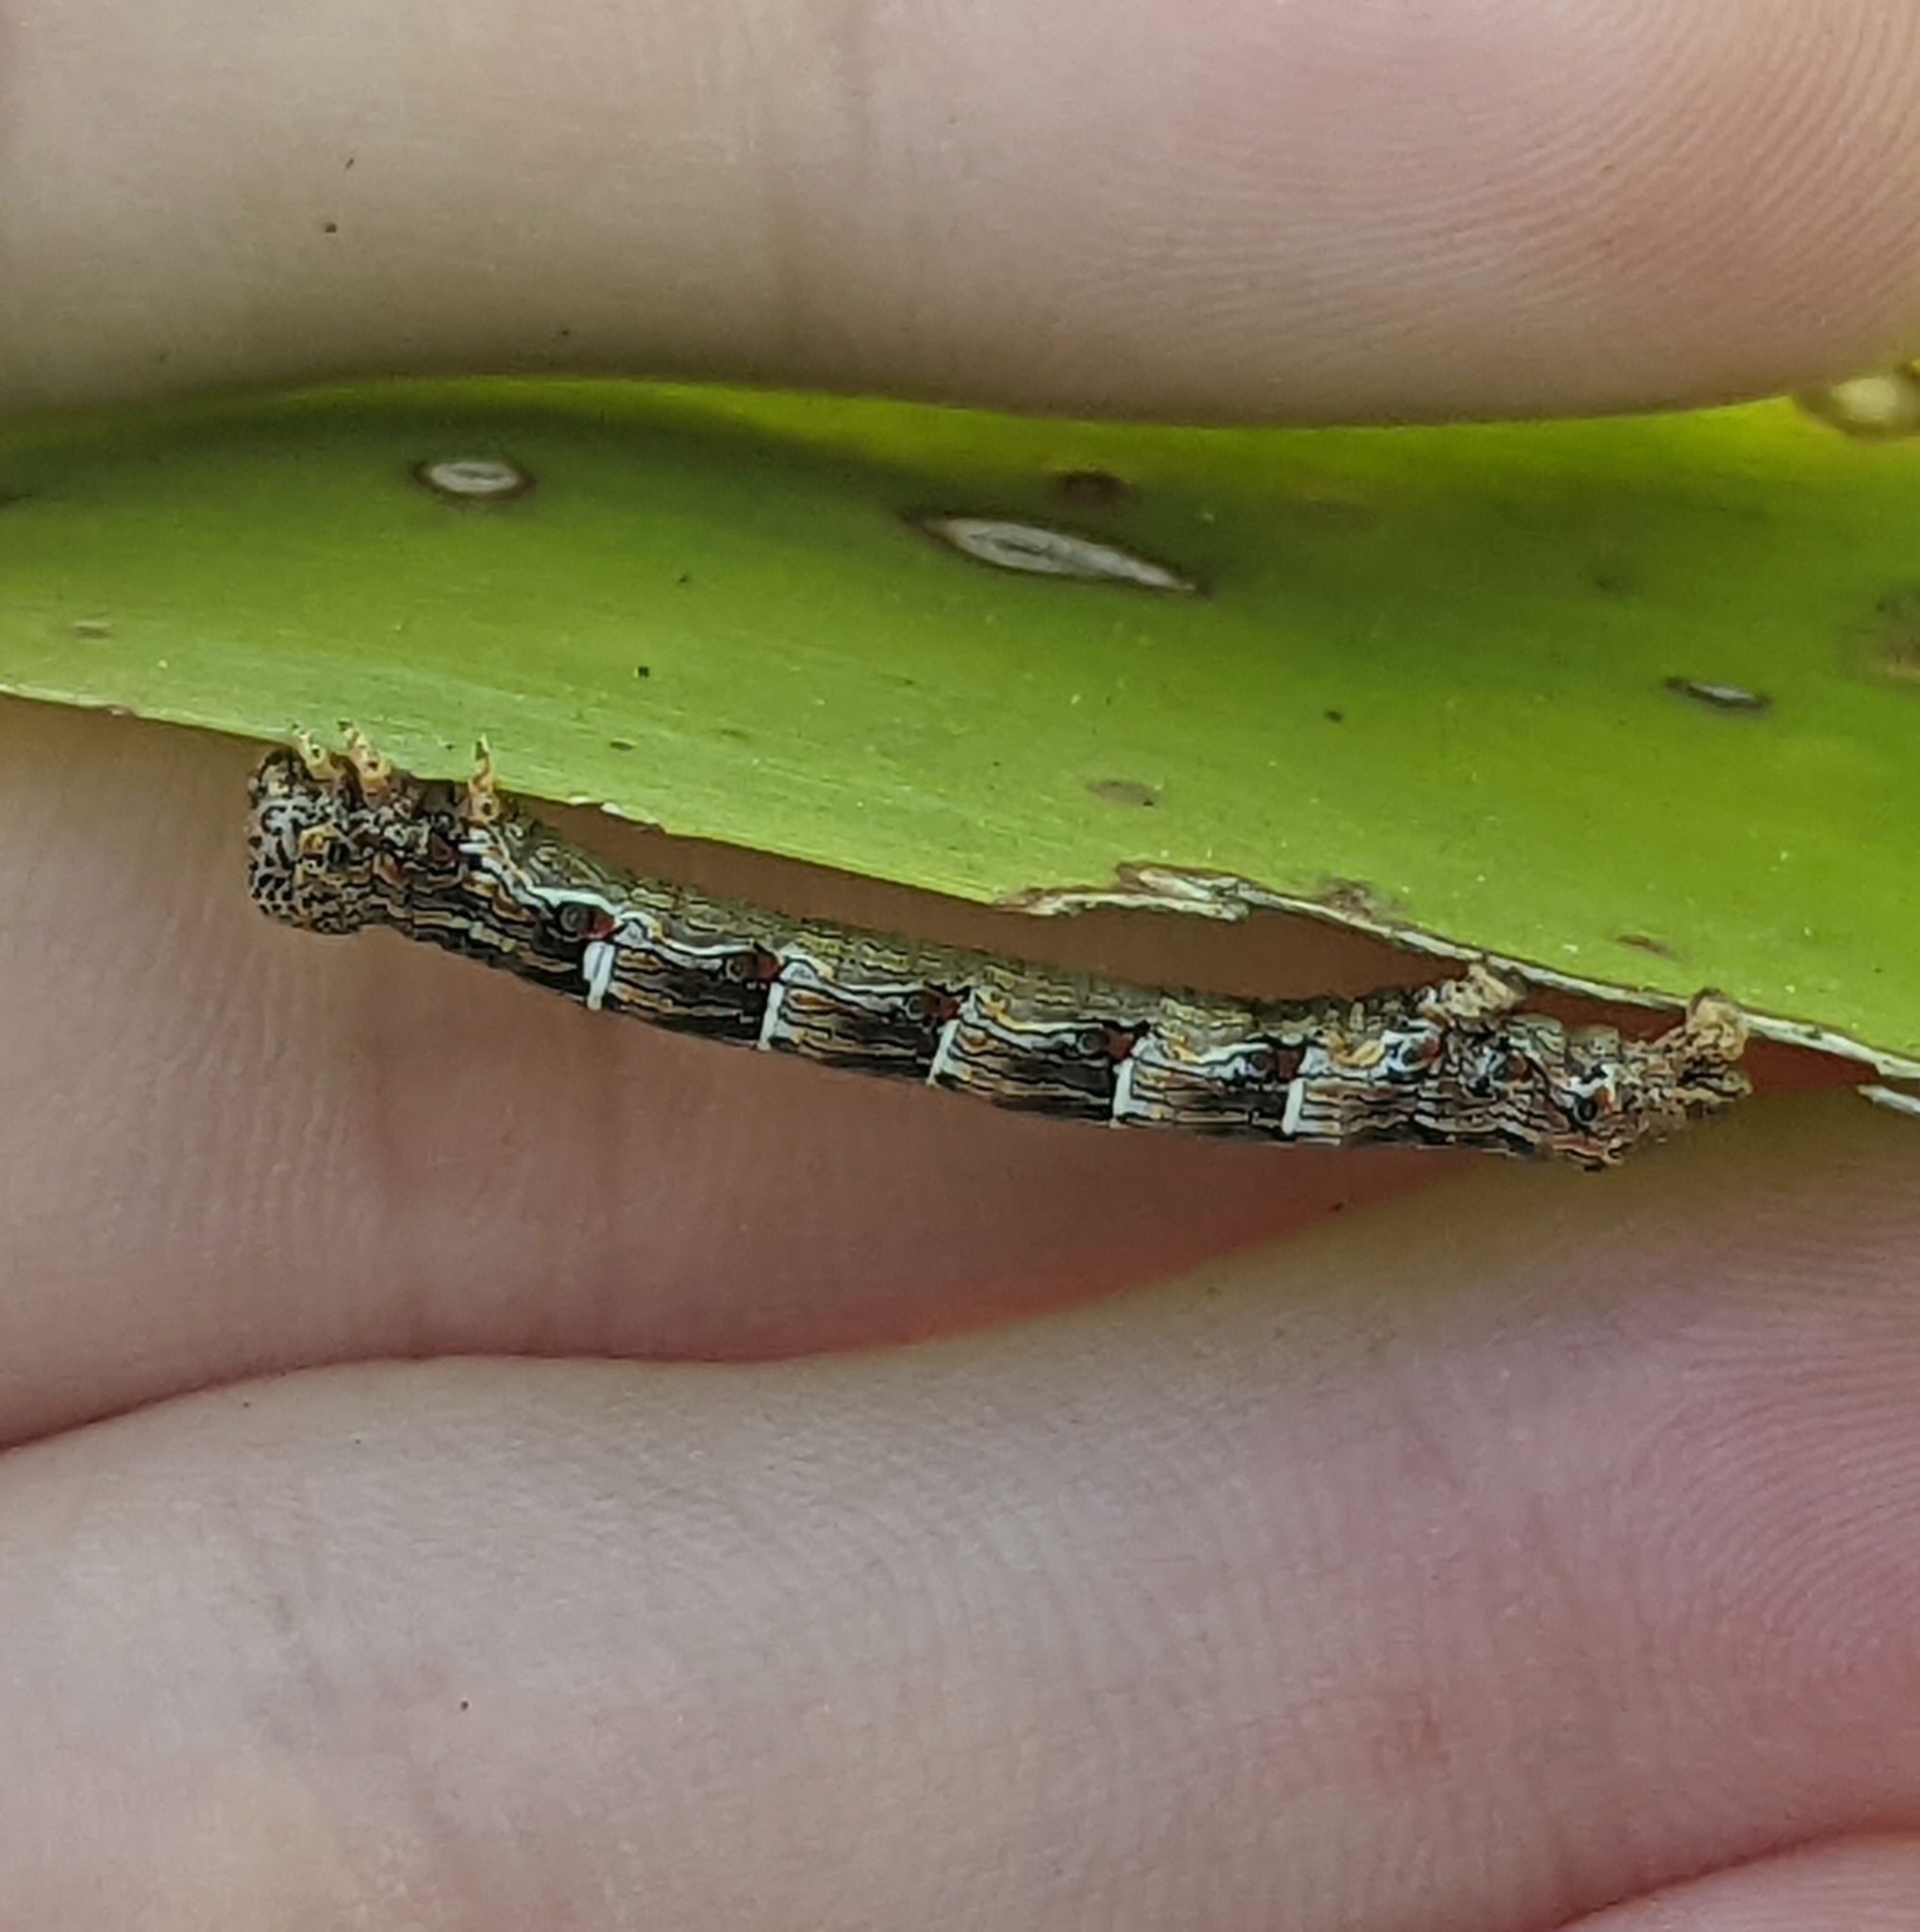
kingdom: Animalia
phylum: Arthropoda
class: Insecta
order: Lepidoptera
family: Geometridae
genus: Lycia
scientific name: Lycia ypsilon
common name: Wooly gray
